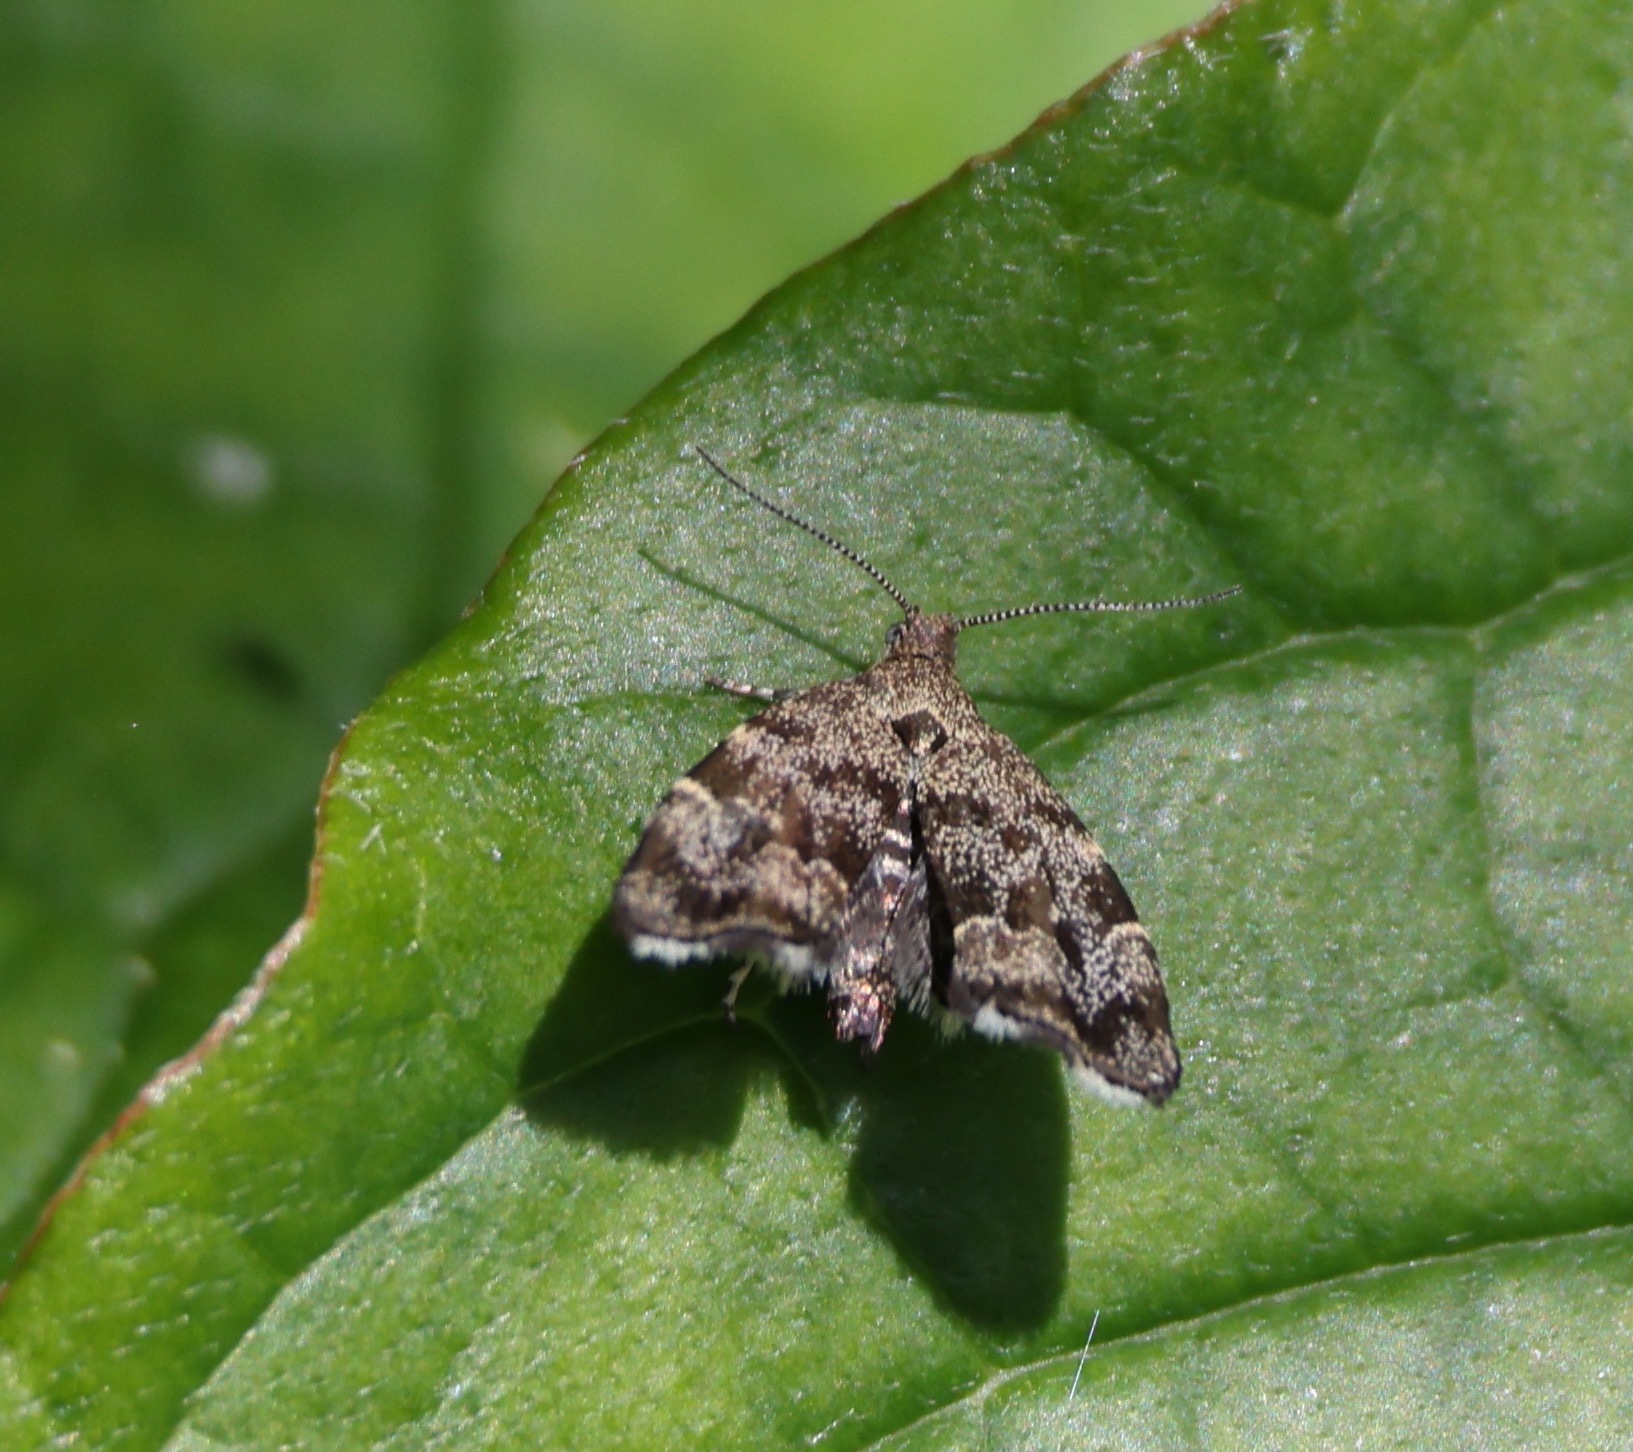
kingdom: Animalia
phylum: Arthropoda
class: Insecta
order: Lepidoptera
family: Choreutidae
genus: Anthophila
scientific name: Anthophila fabriciana
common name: Nettle-tap
